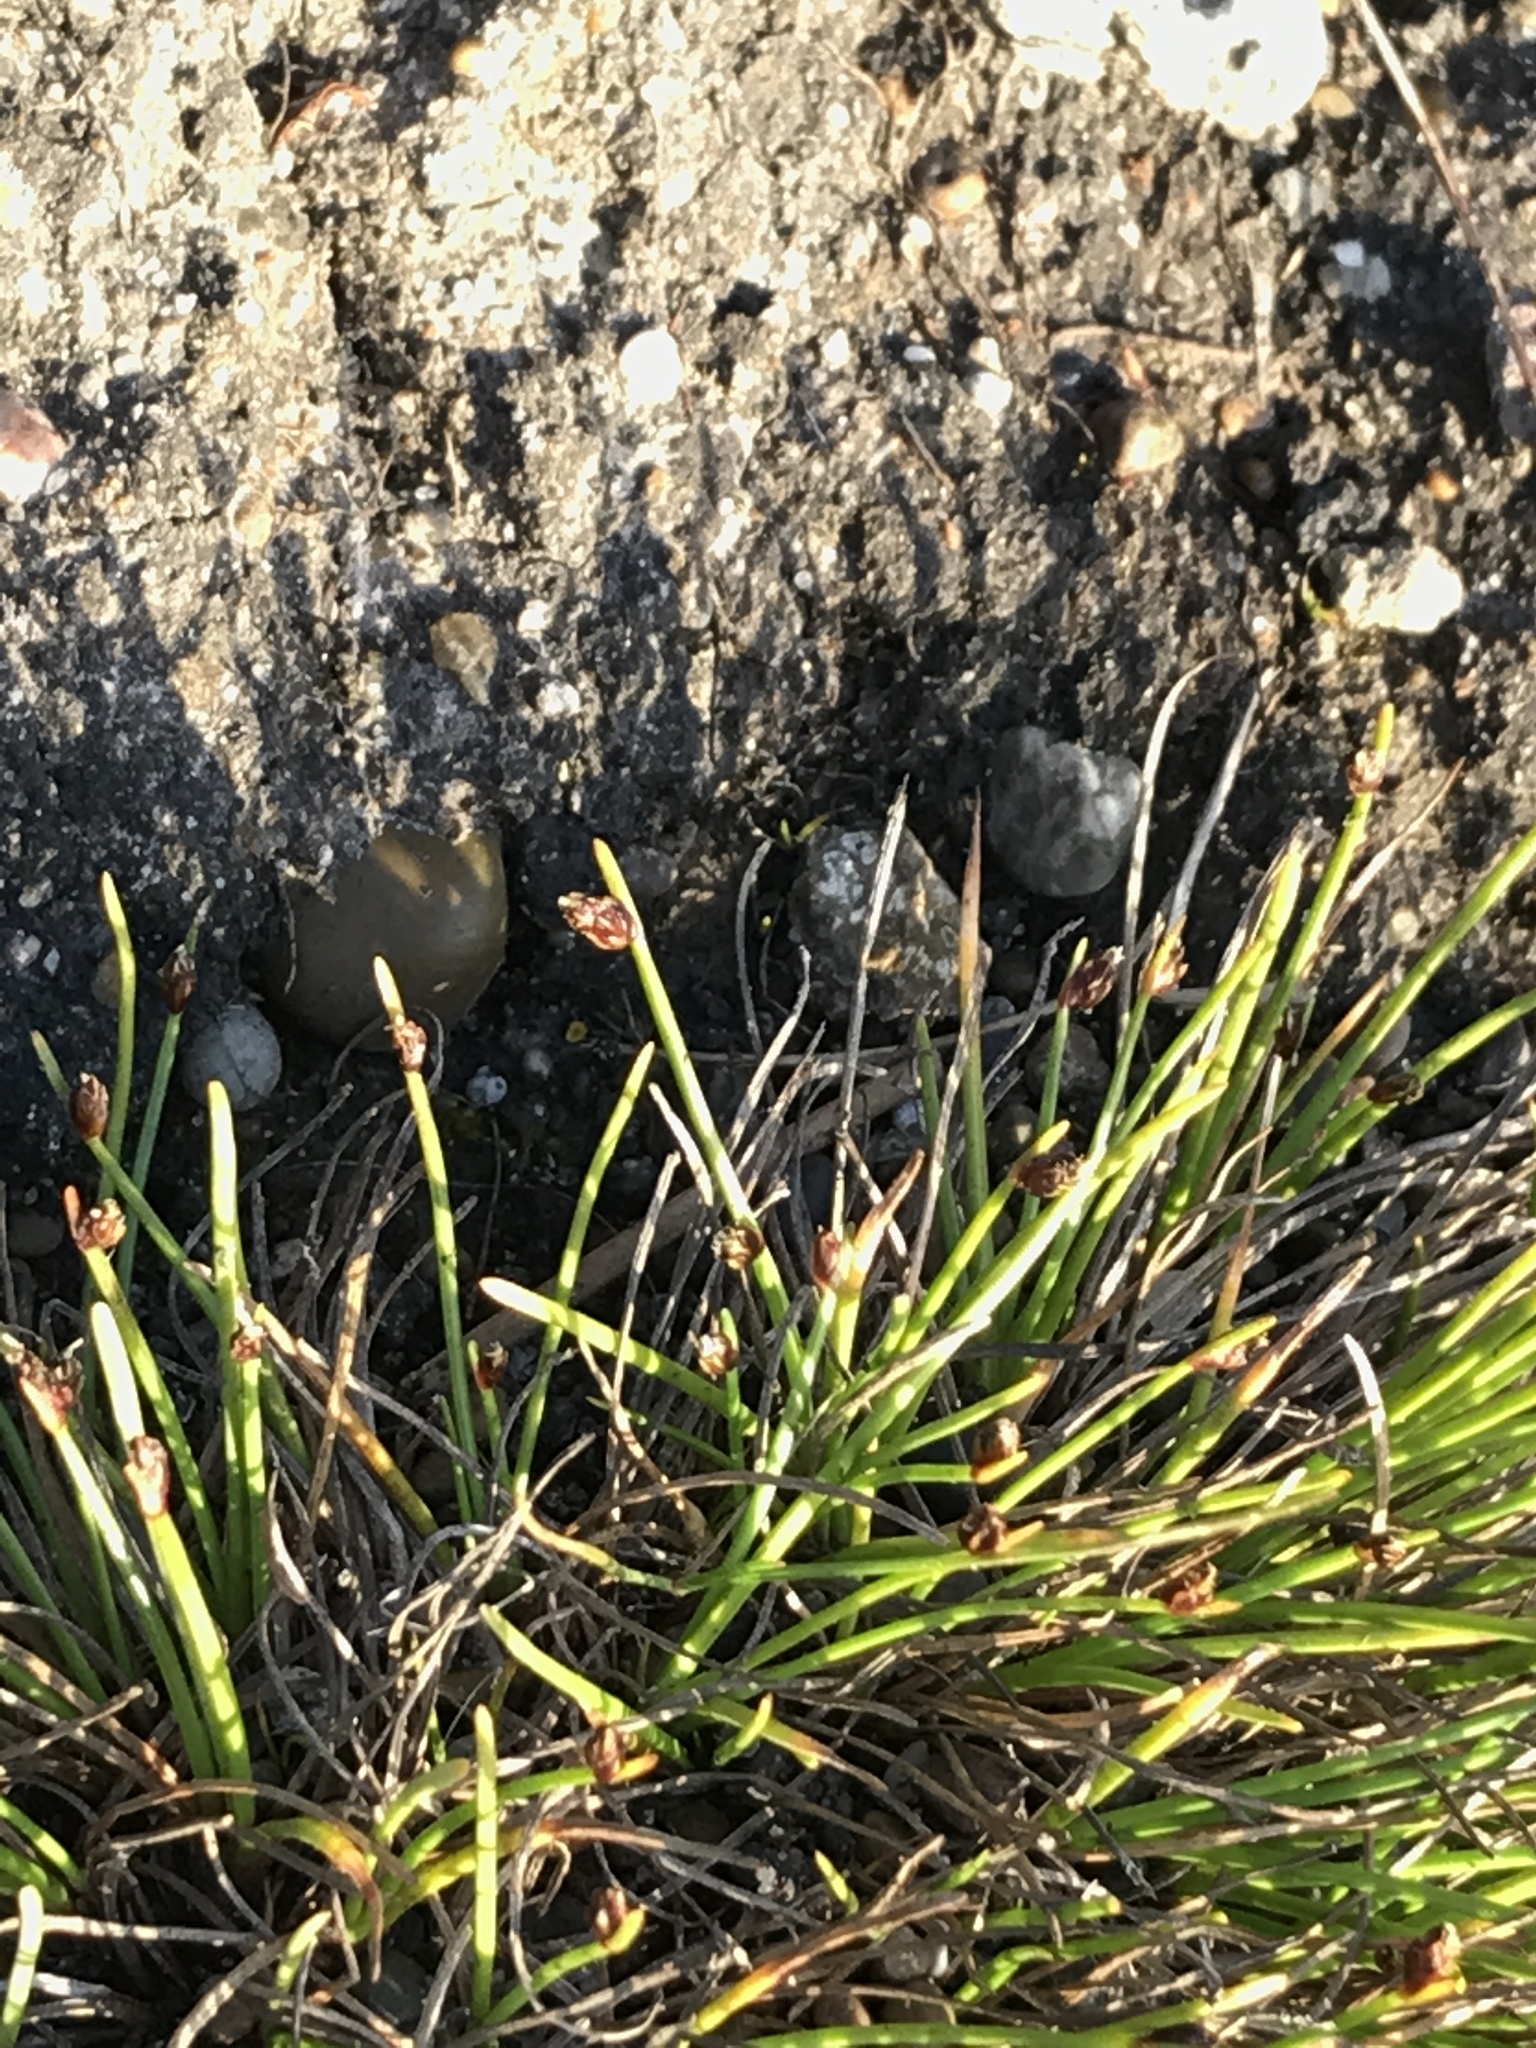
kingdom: Plantae
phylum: Tracheophyta
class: Liliopsida
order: Poales
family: Cyperaceae
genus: Isolepis
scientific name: Isolepis cernua
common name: Slender club-rush
